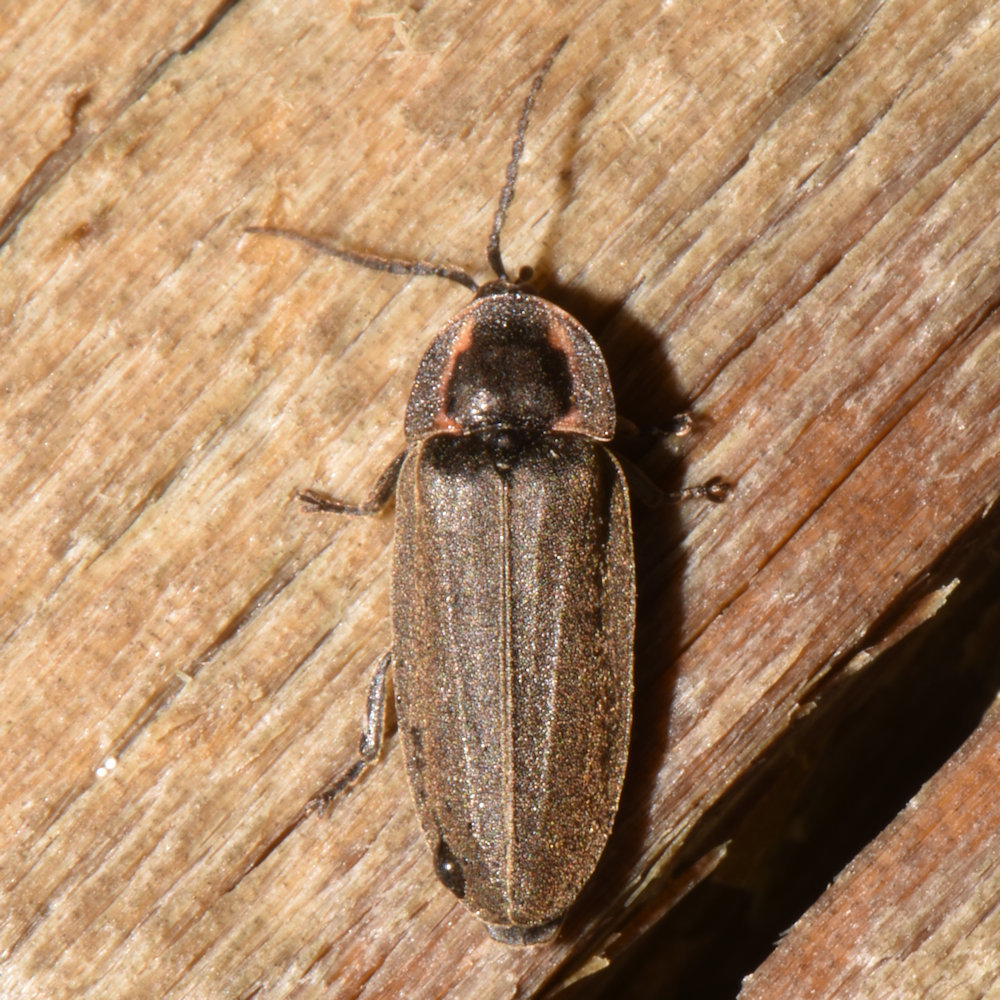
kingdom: Animalia
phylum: Arthropoda
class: Insecta
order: Coleoptera
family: Lampyridae
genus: Photinus
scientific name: Photinus corrusca
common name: Winter firefly
